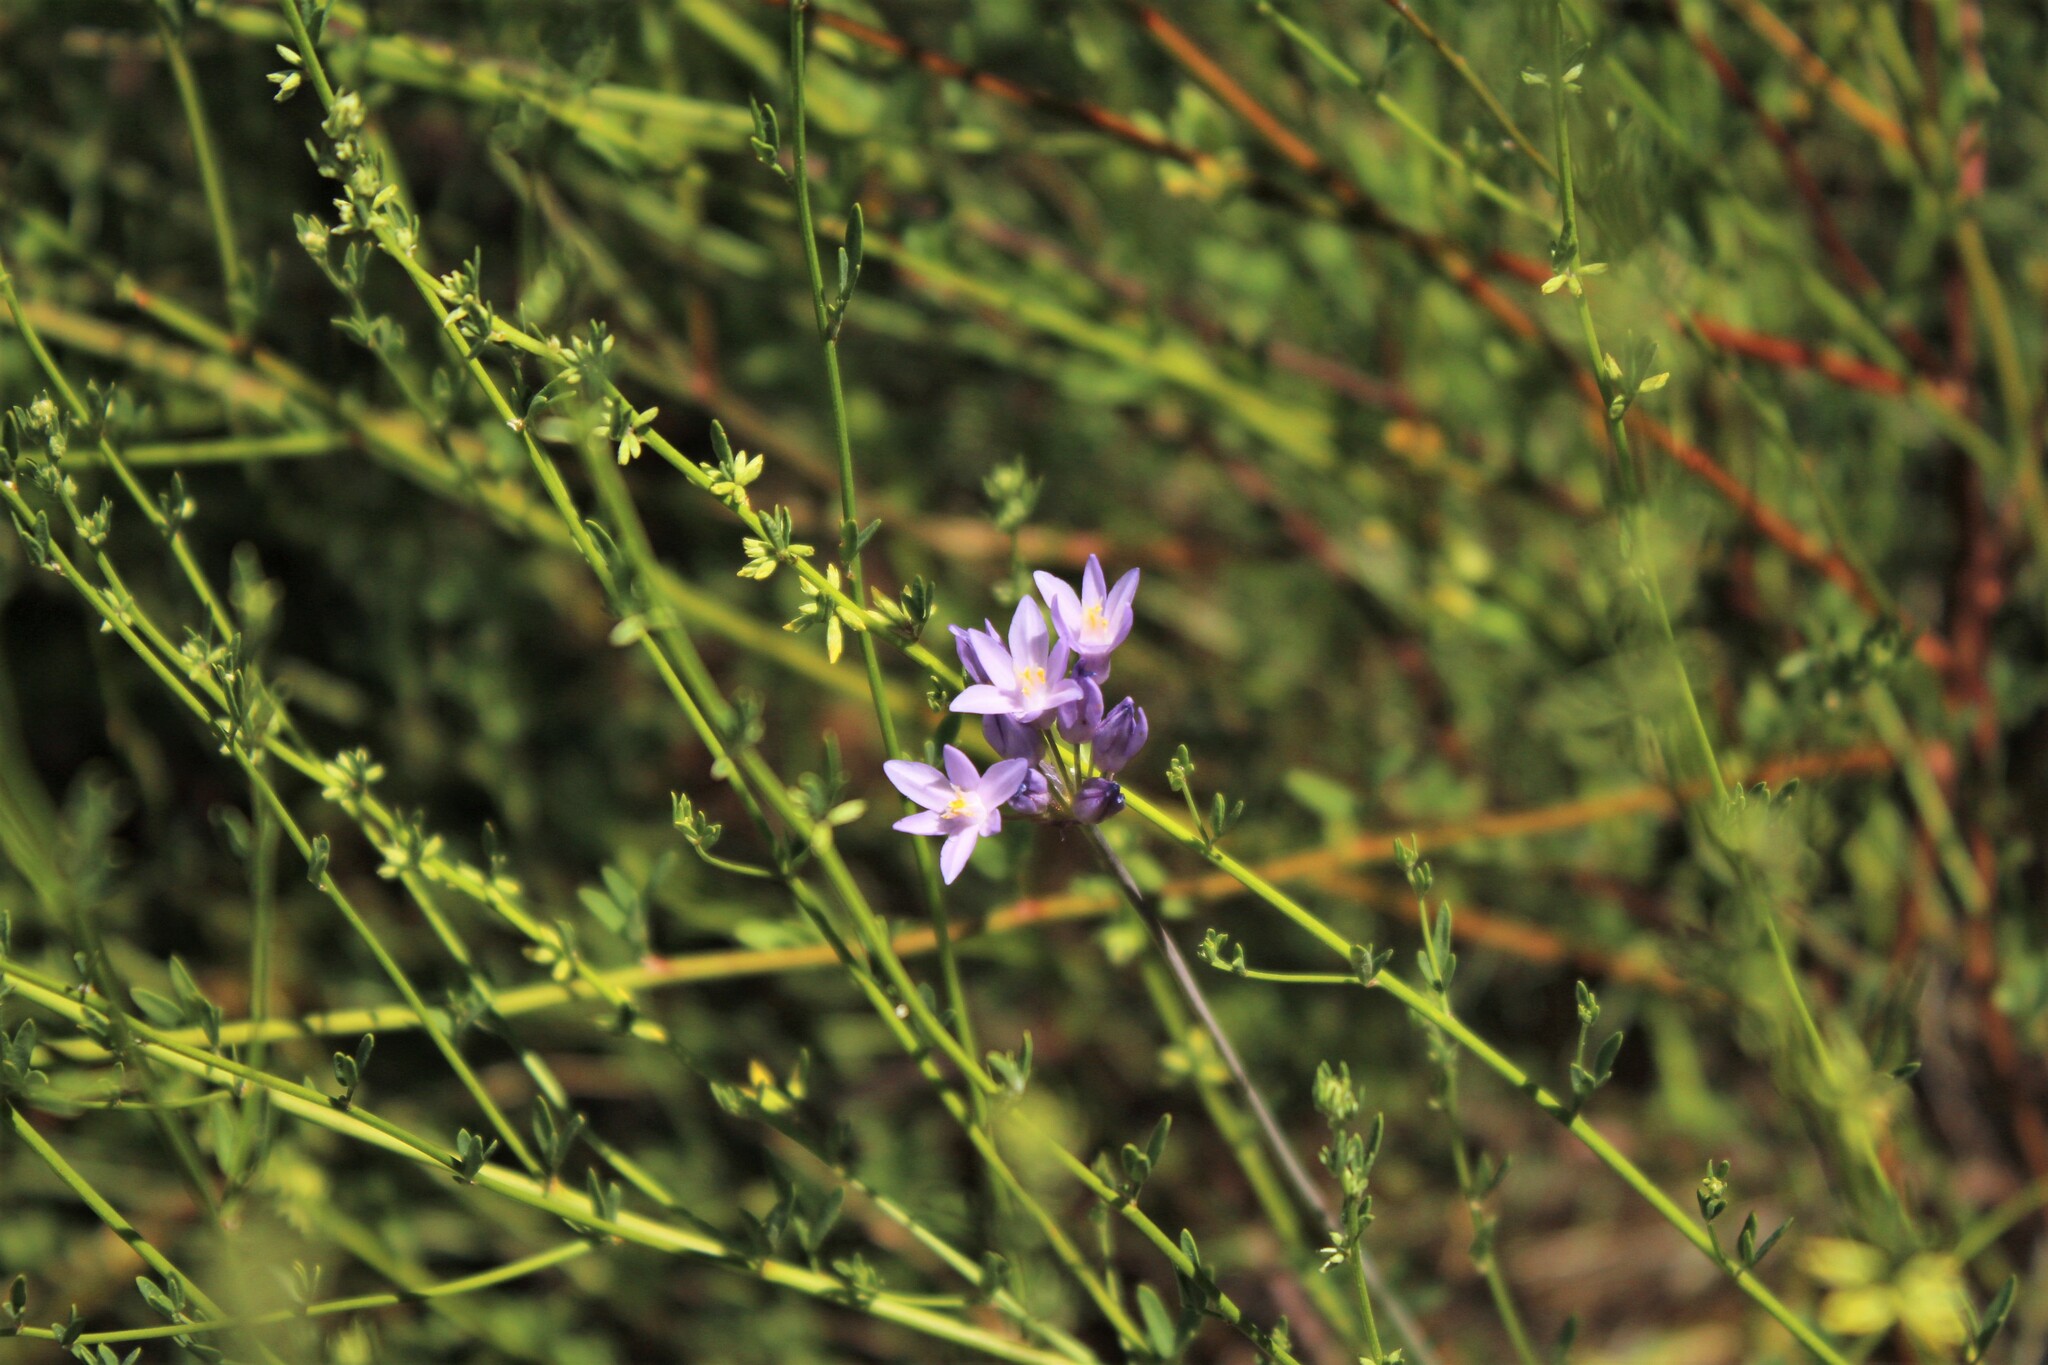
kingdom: Plantae
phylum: Tracheophyta
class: Liliopsida
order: Asparagales
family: Asparagaceae
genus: Dipterostemon
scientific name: Dipterostemon capitatus
